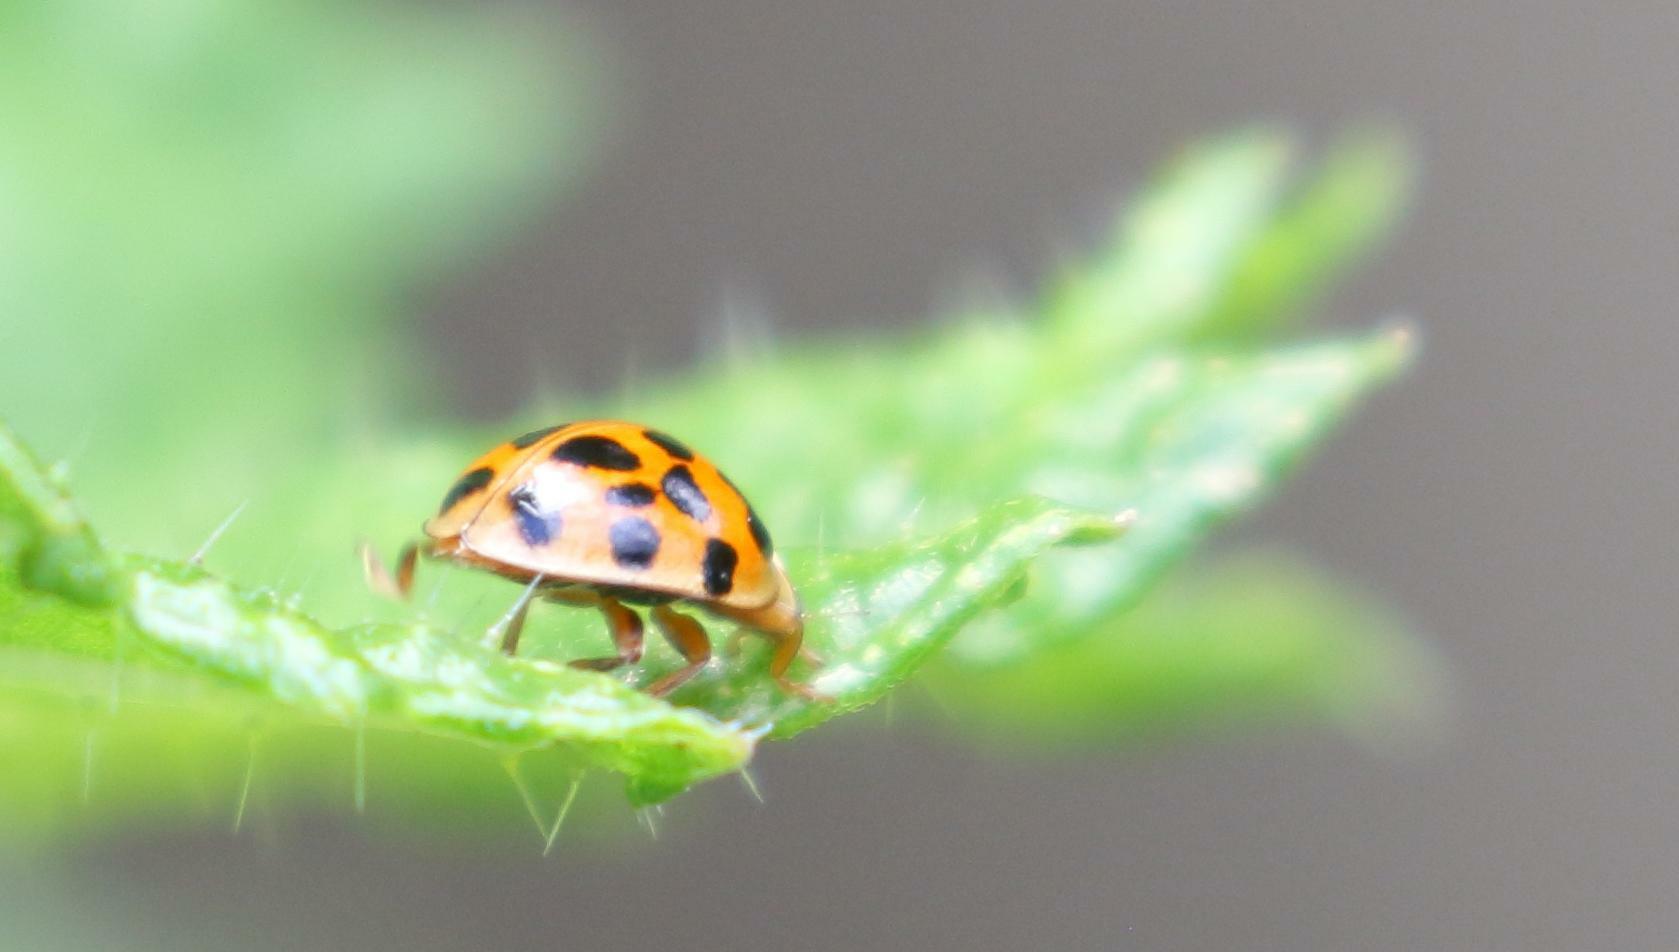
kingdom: Animalia
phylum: Arthropoda
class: Insecta
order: Coleoptera
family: Coccinellidae
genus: Harmonia
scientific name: Harmonia axyridis
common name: Harlequin ladybird
